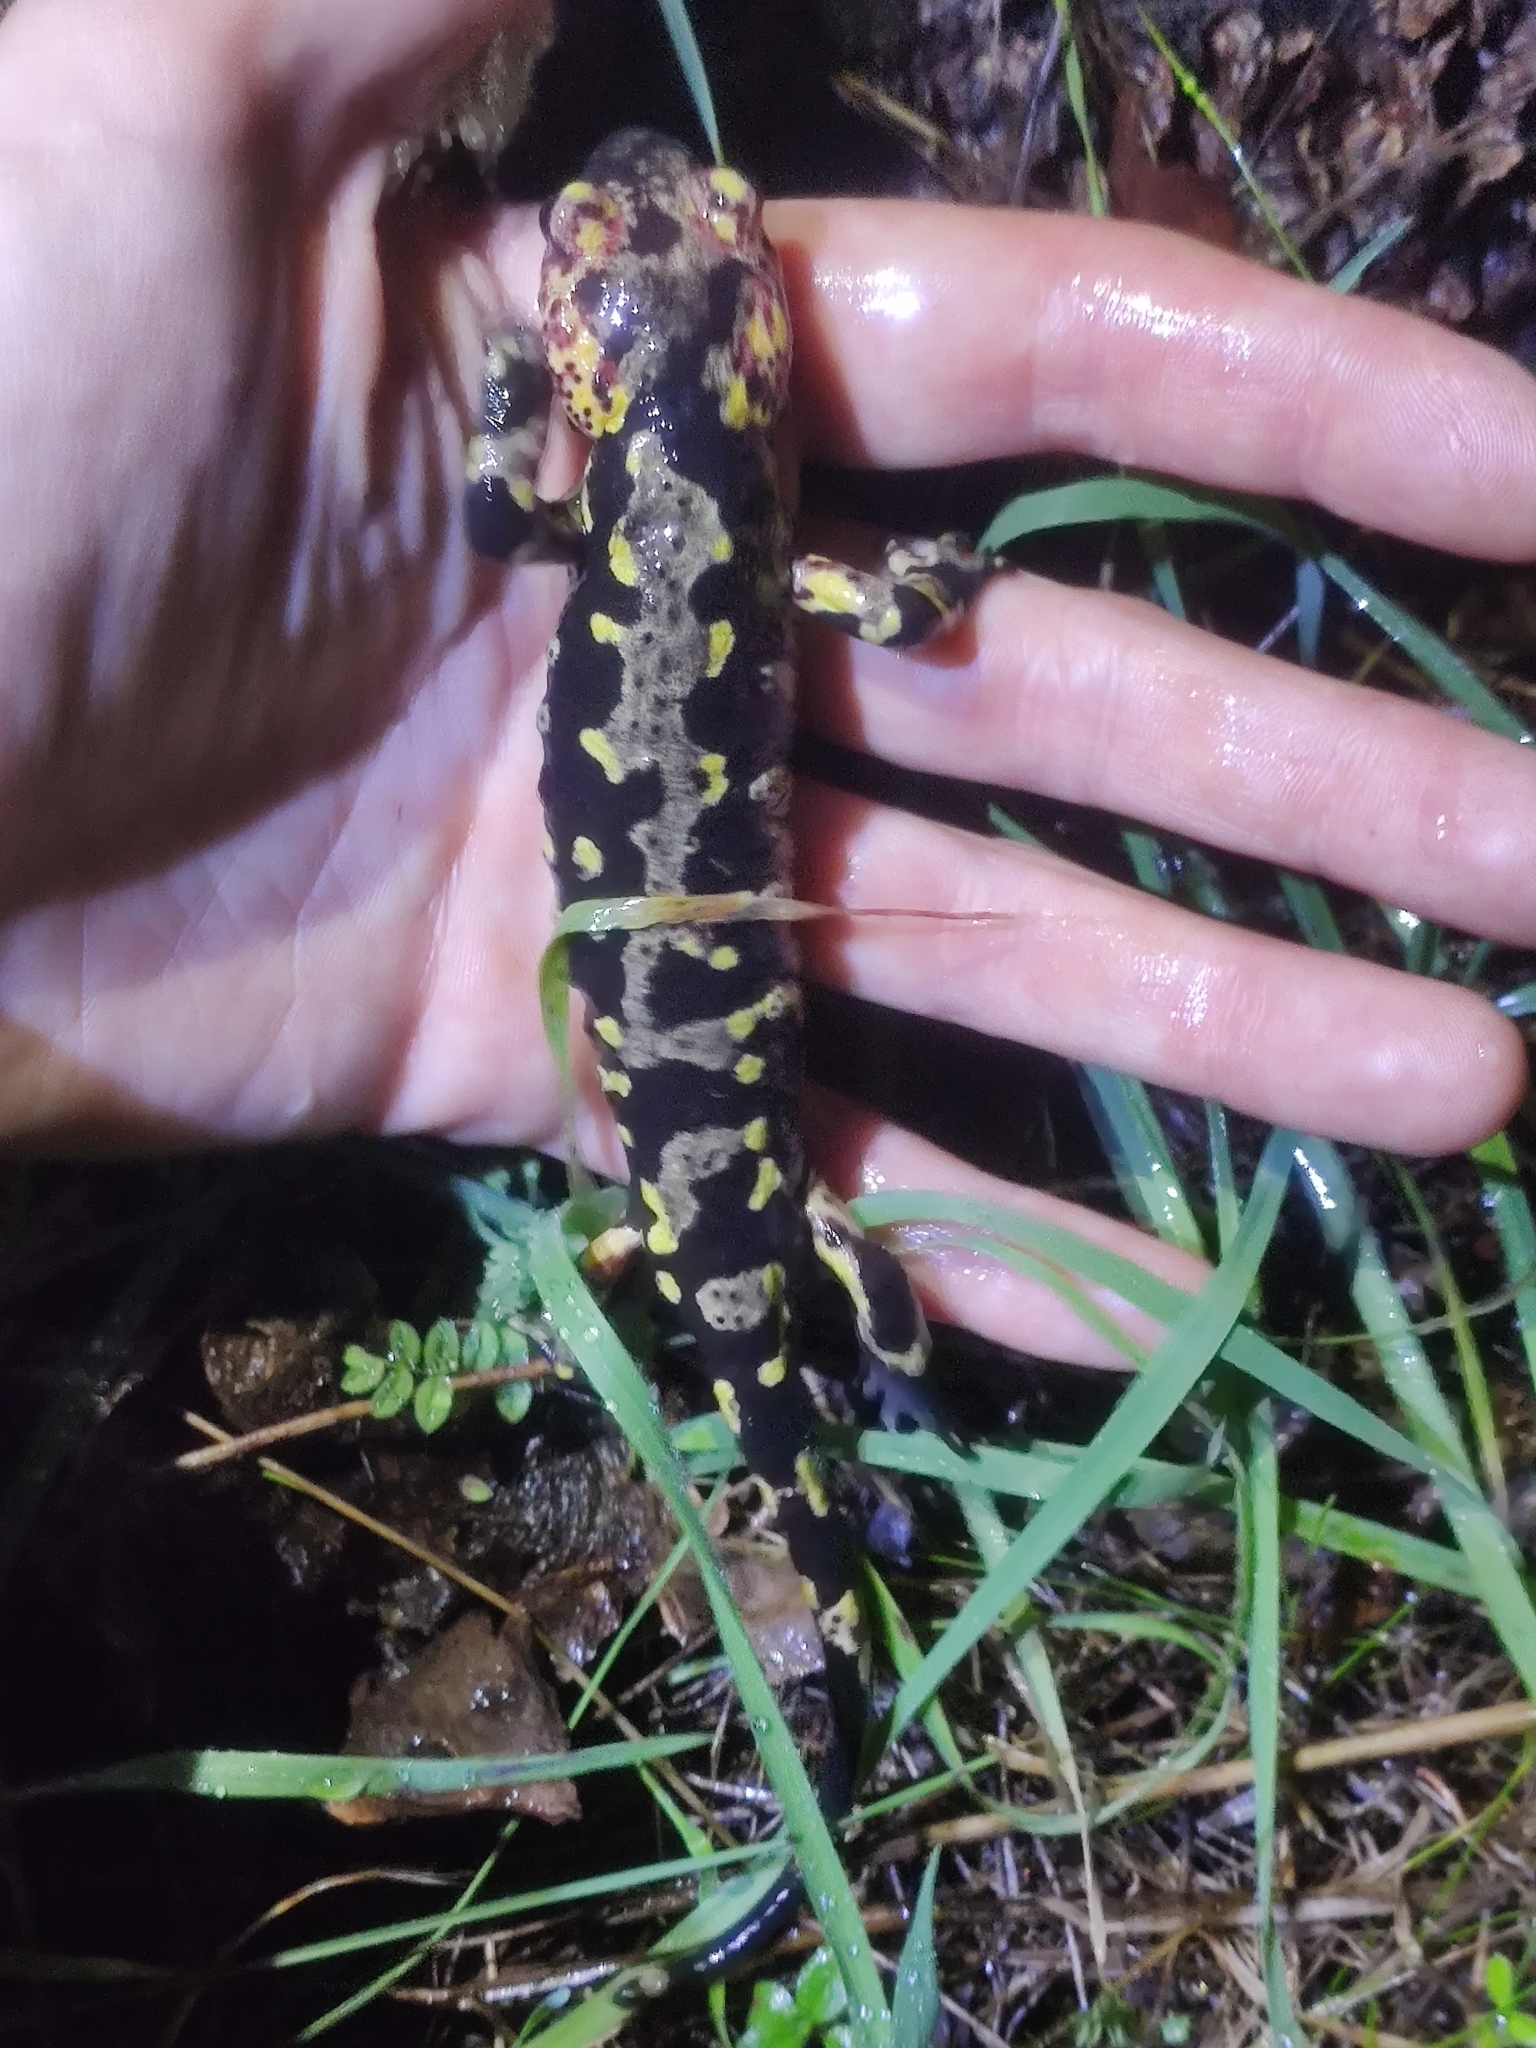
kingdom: Animalia
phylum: Chordata
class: Amphibia
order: Caudata
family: Salamandridae
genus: Salamandra
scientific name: Salamandra salamandra
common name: Fire salamander
